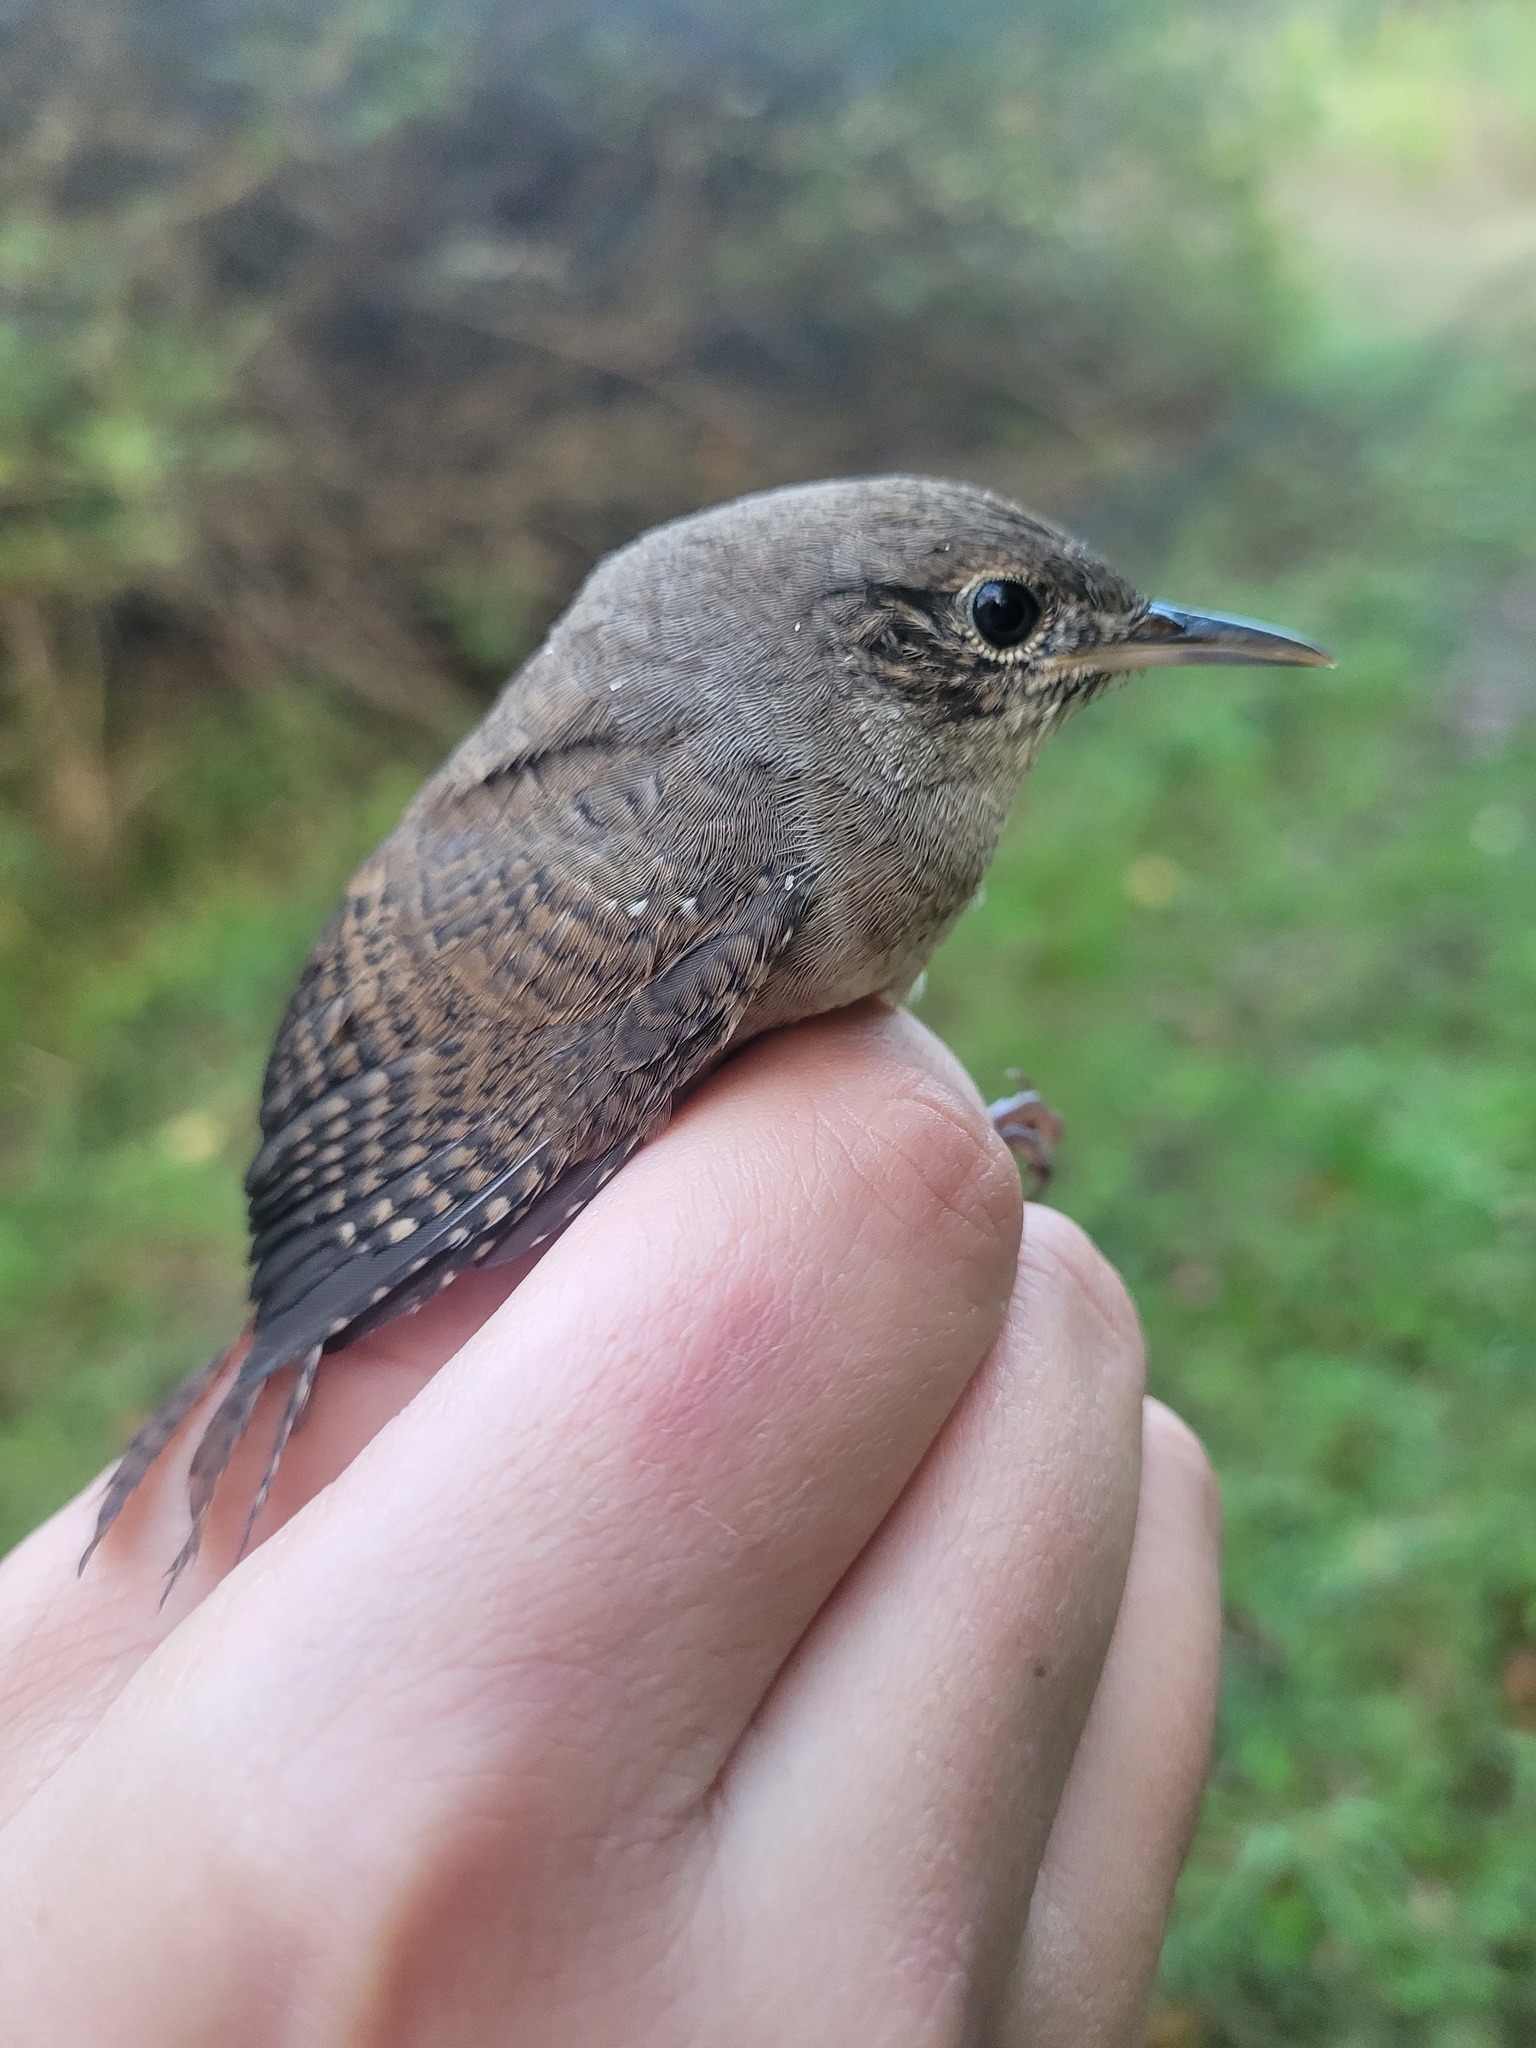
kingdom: Animalia
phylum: Chordata
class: Aves
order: Passeriformes
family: Troglodytidae
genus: Troglodytes
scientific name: Troglodytes aedon
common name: House wren
